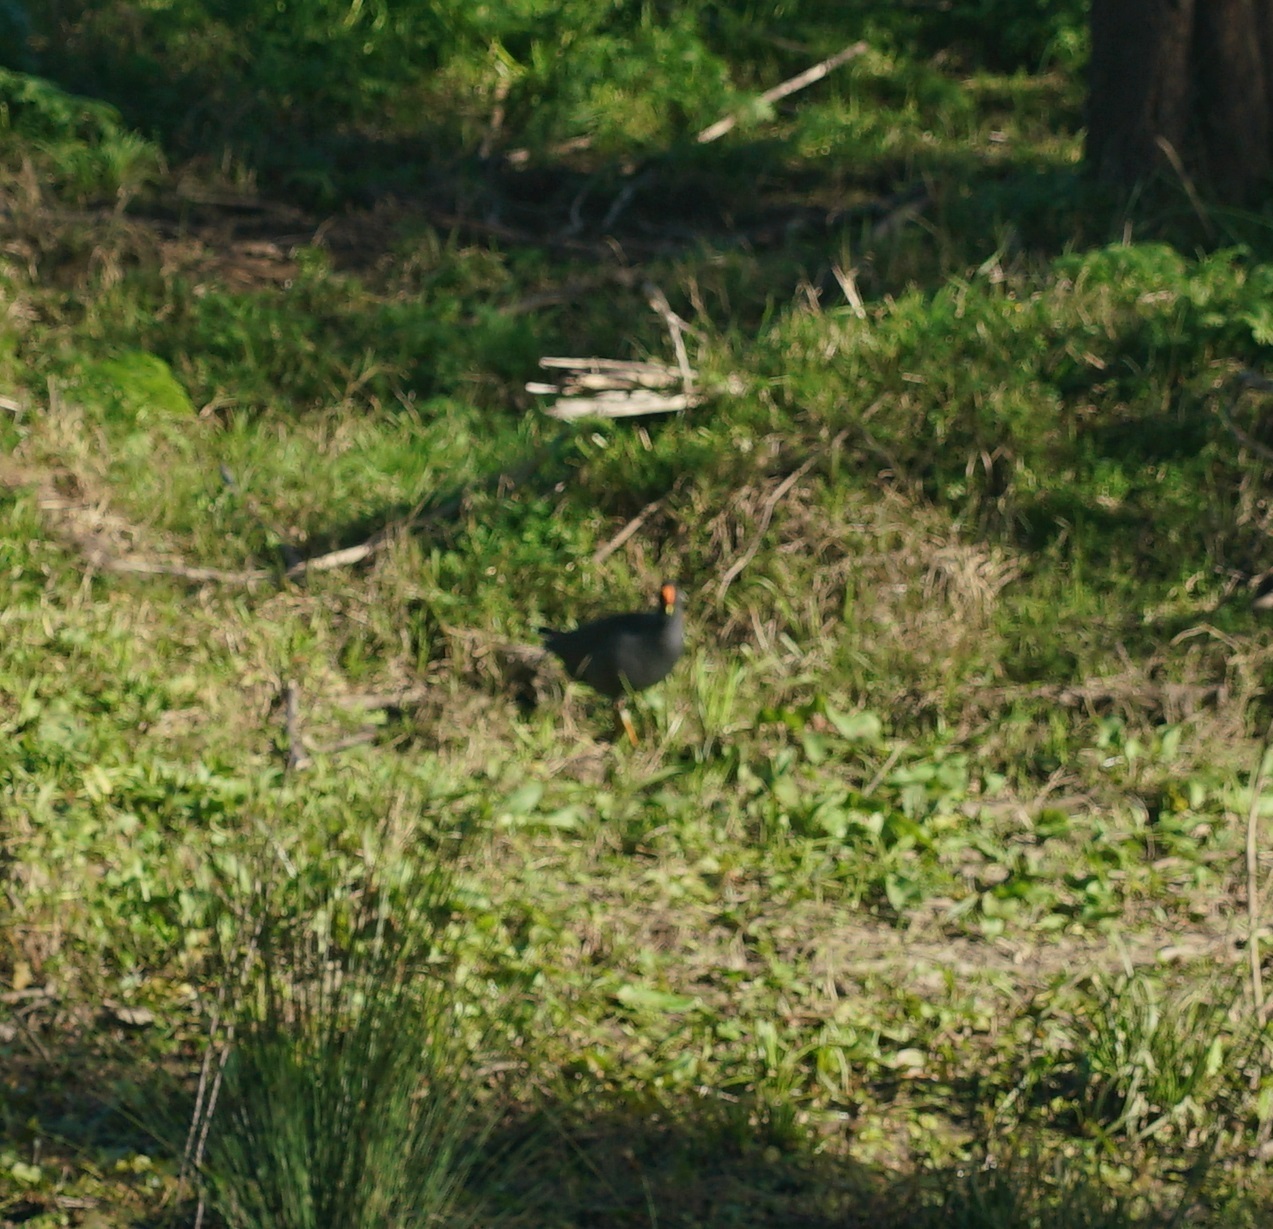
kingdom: Animalia
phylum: Chordata
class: Aves
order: Gruiformes
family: Rallidae
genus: Gallinula
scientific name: Gallinula tenebrosa
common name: Dusky moorhen
